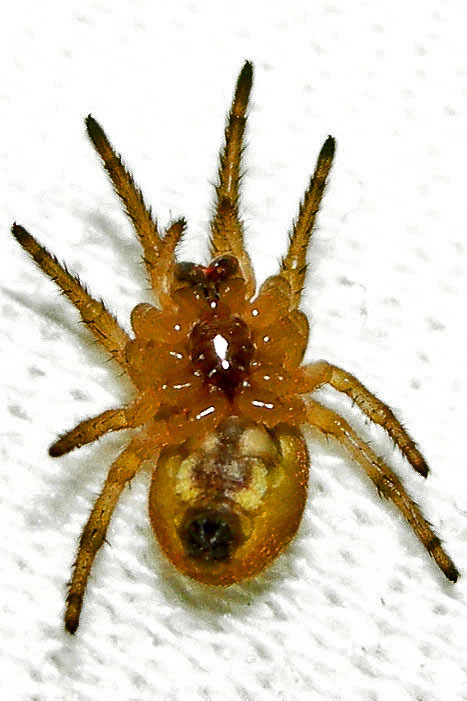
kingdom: Animalia
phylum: Arthropoda
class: Arachnida
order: Araneae
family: Araneidae
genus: Larinioides
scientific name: Larinioides cornutus
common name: Furrow orbweaver
